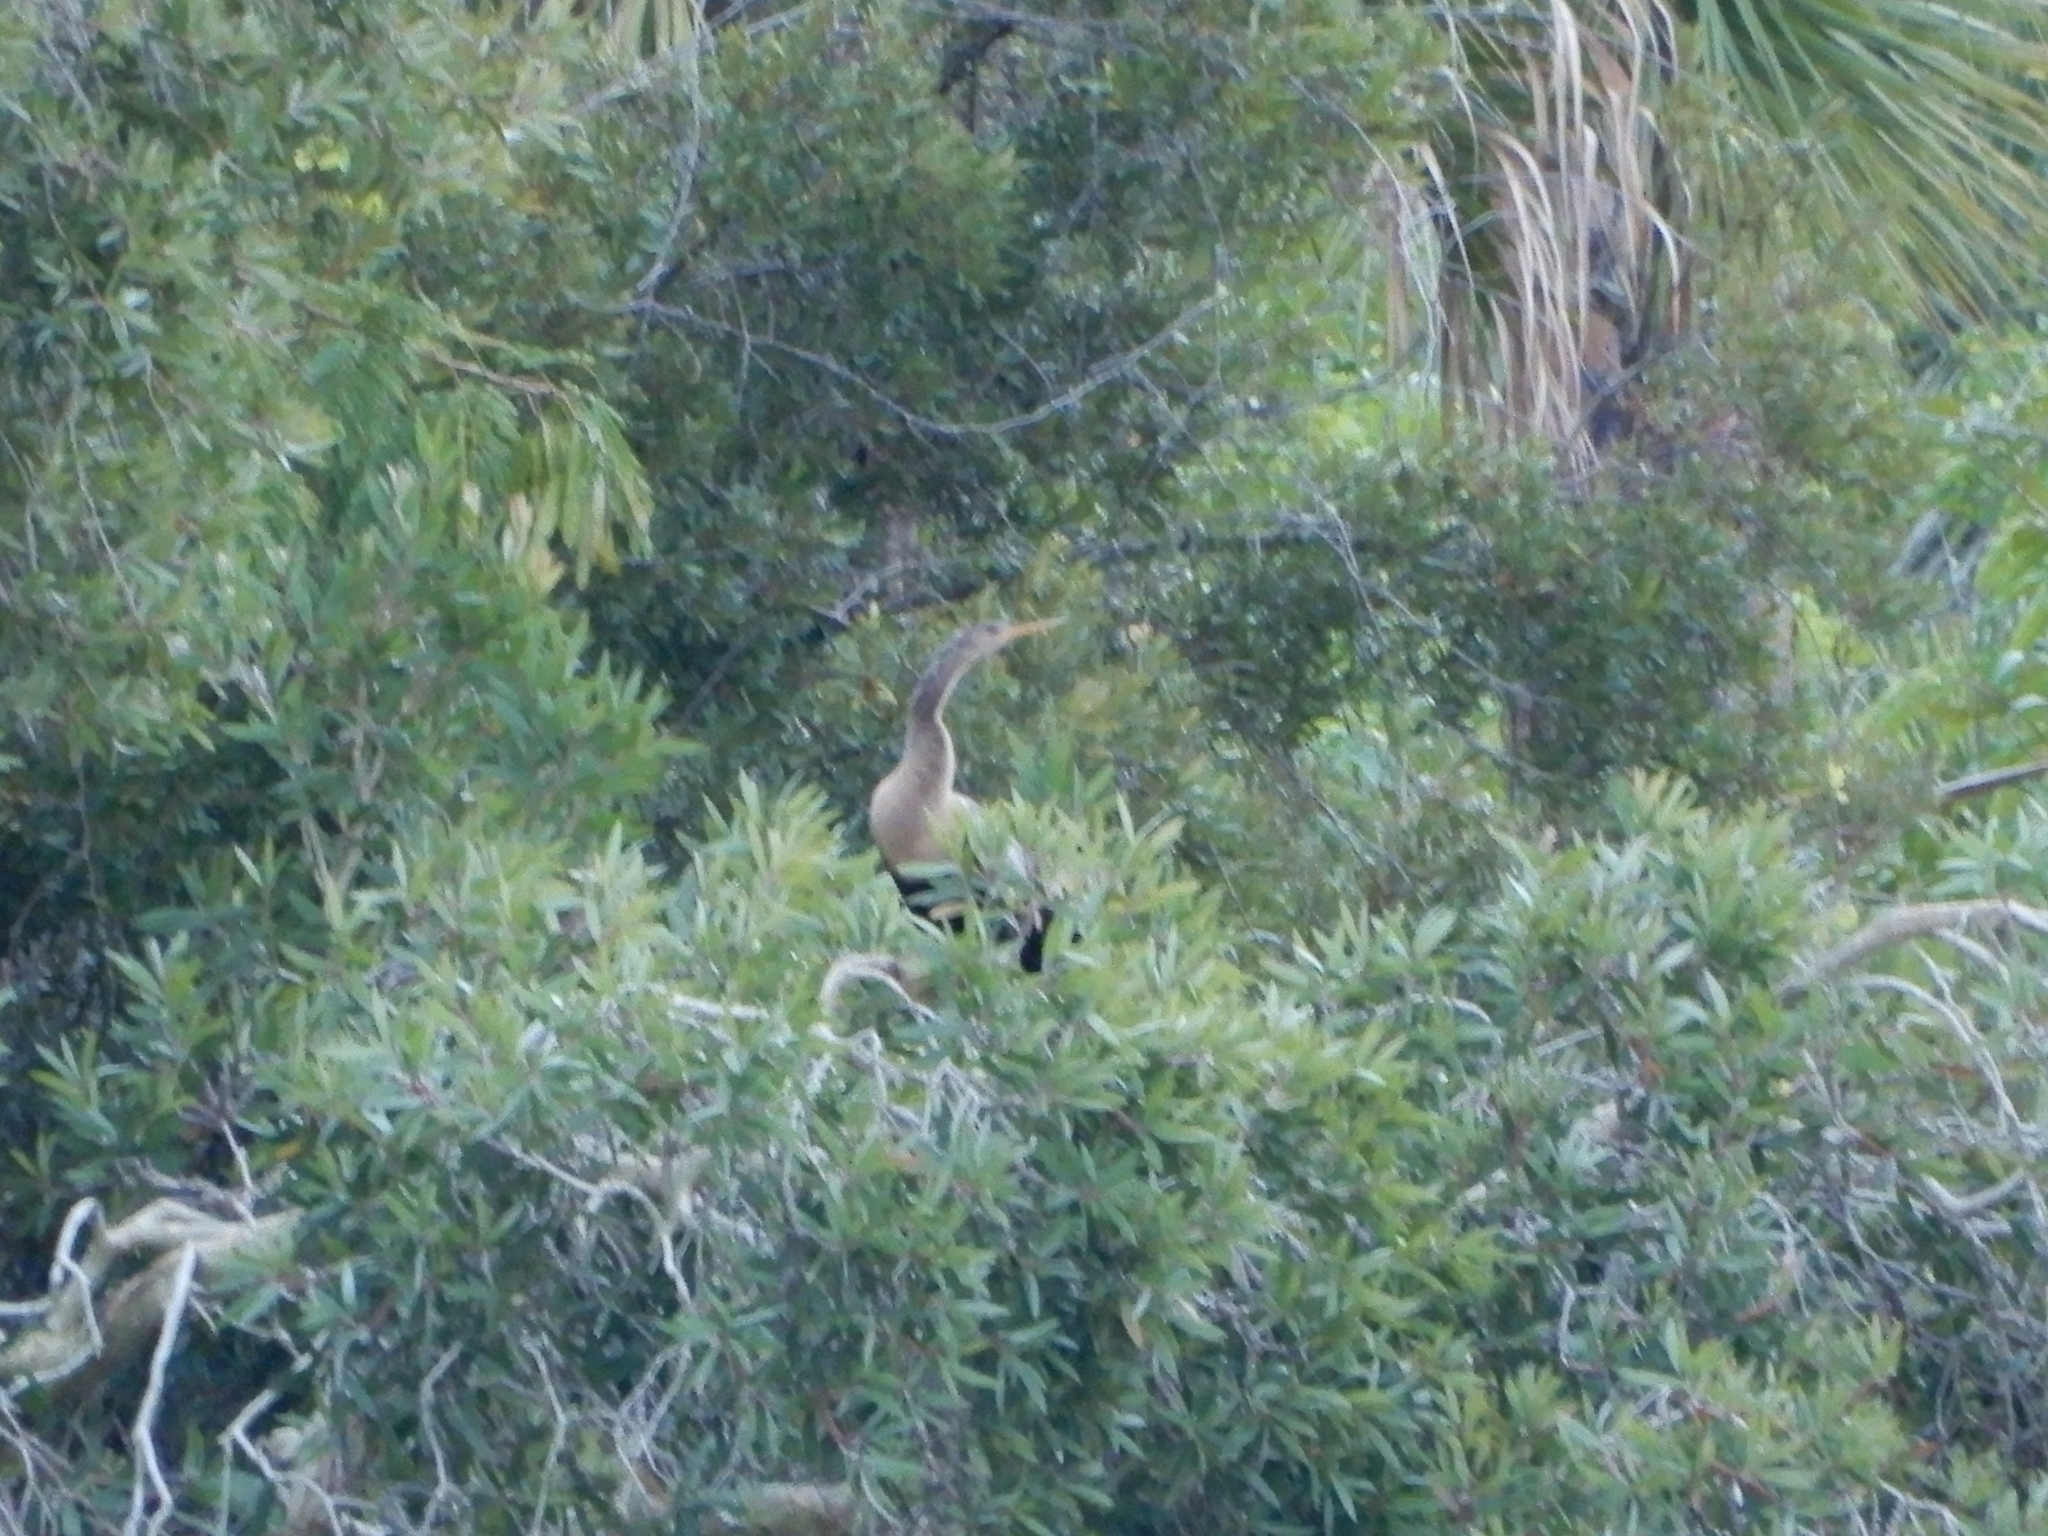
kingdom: Animalia
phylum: Chordata
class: Aves
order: Suliformes
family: Anhingidae
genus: Anhinga
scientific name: Anhinga anhinga
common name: Anhinga
